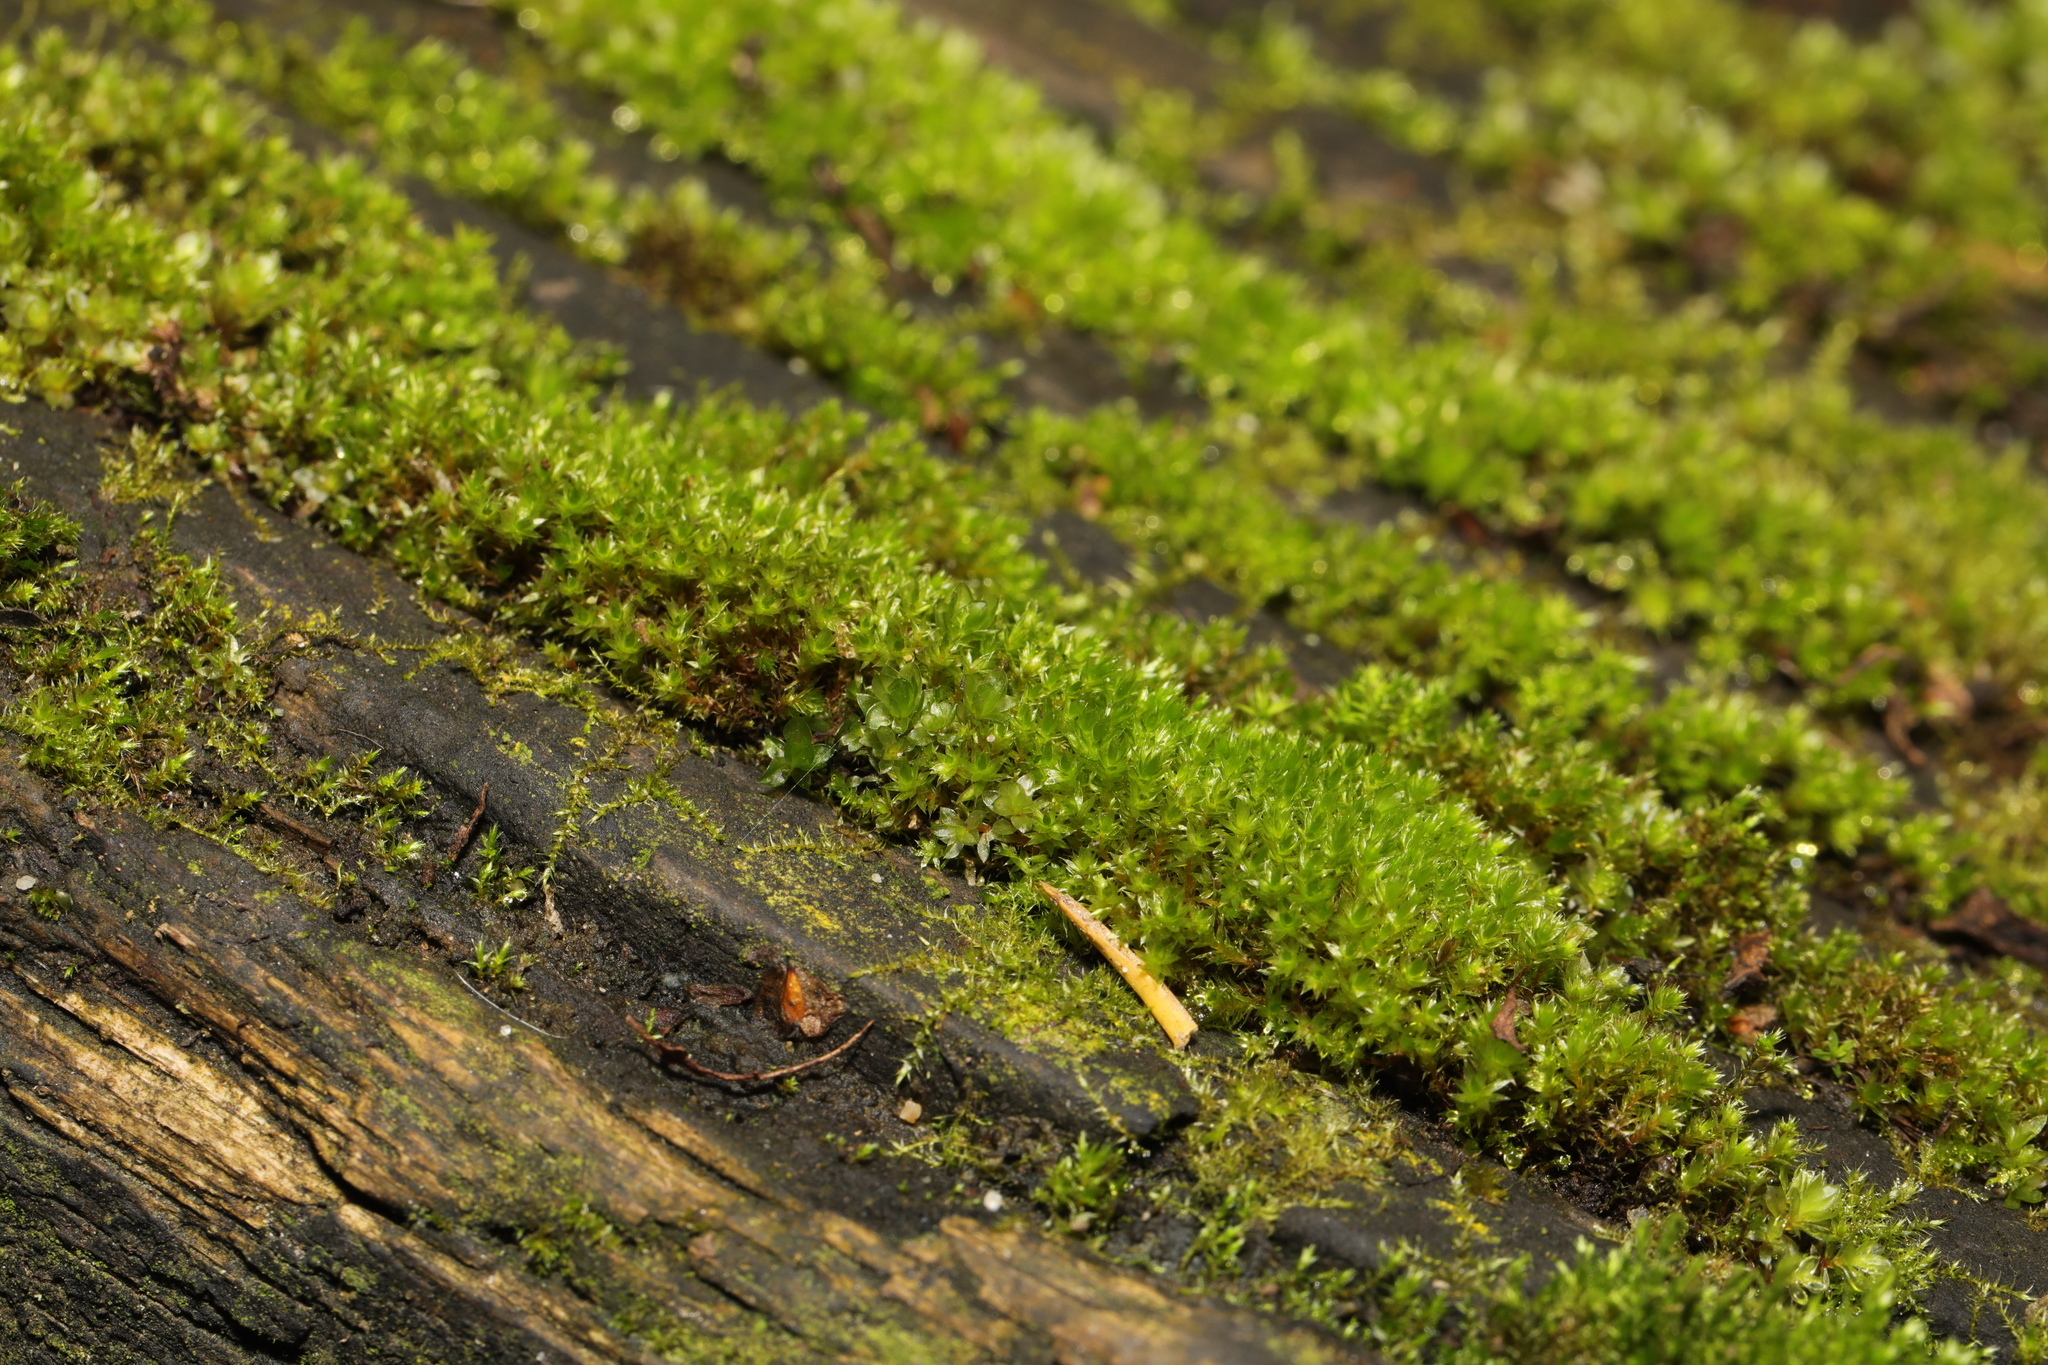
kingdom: Plantae
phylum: Bryophyta
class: Bryopsida
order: Bryales
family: Bryaceae
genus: Rosulabryum
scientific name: Rosulabryum capillare
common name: Capillary thread-moss
